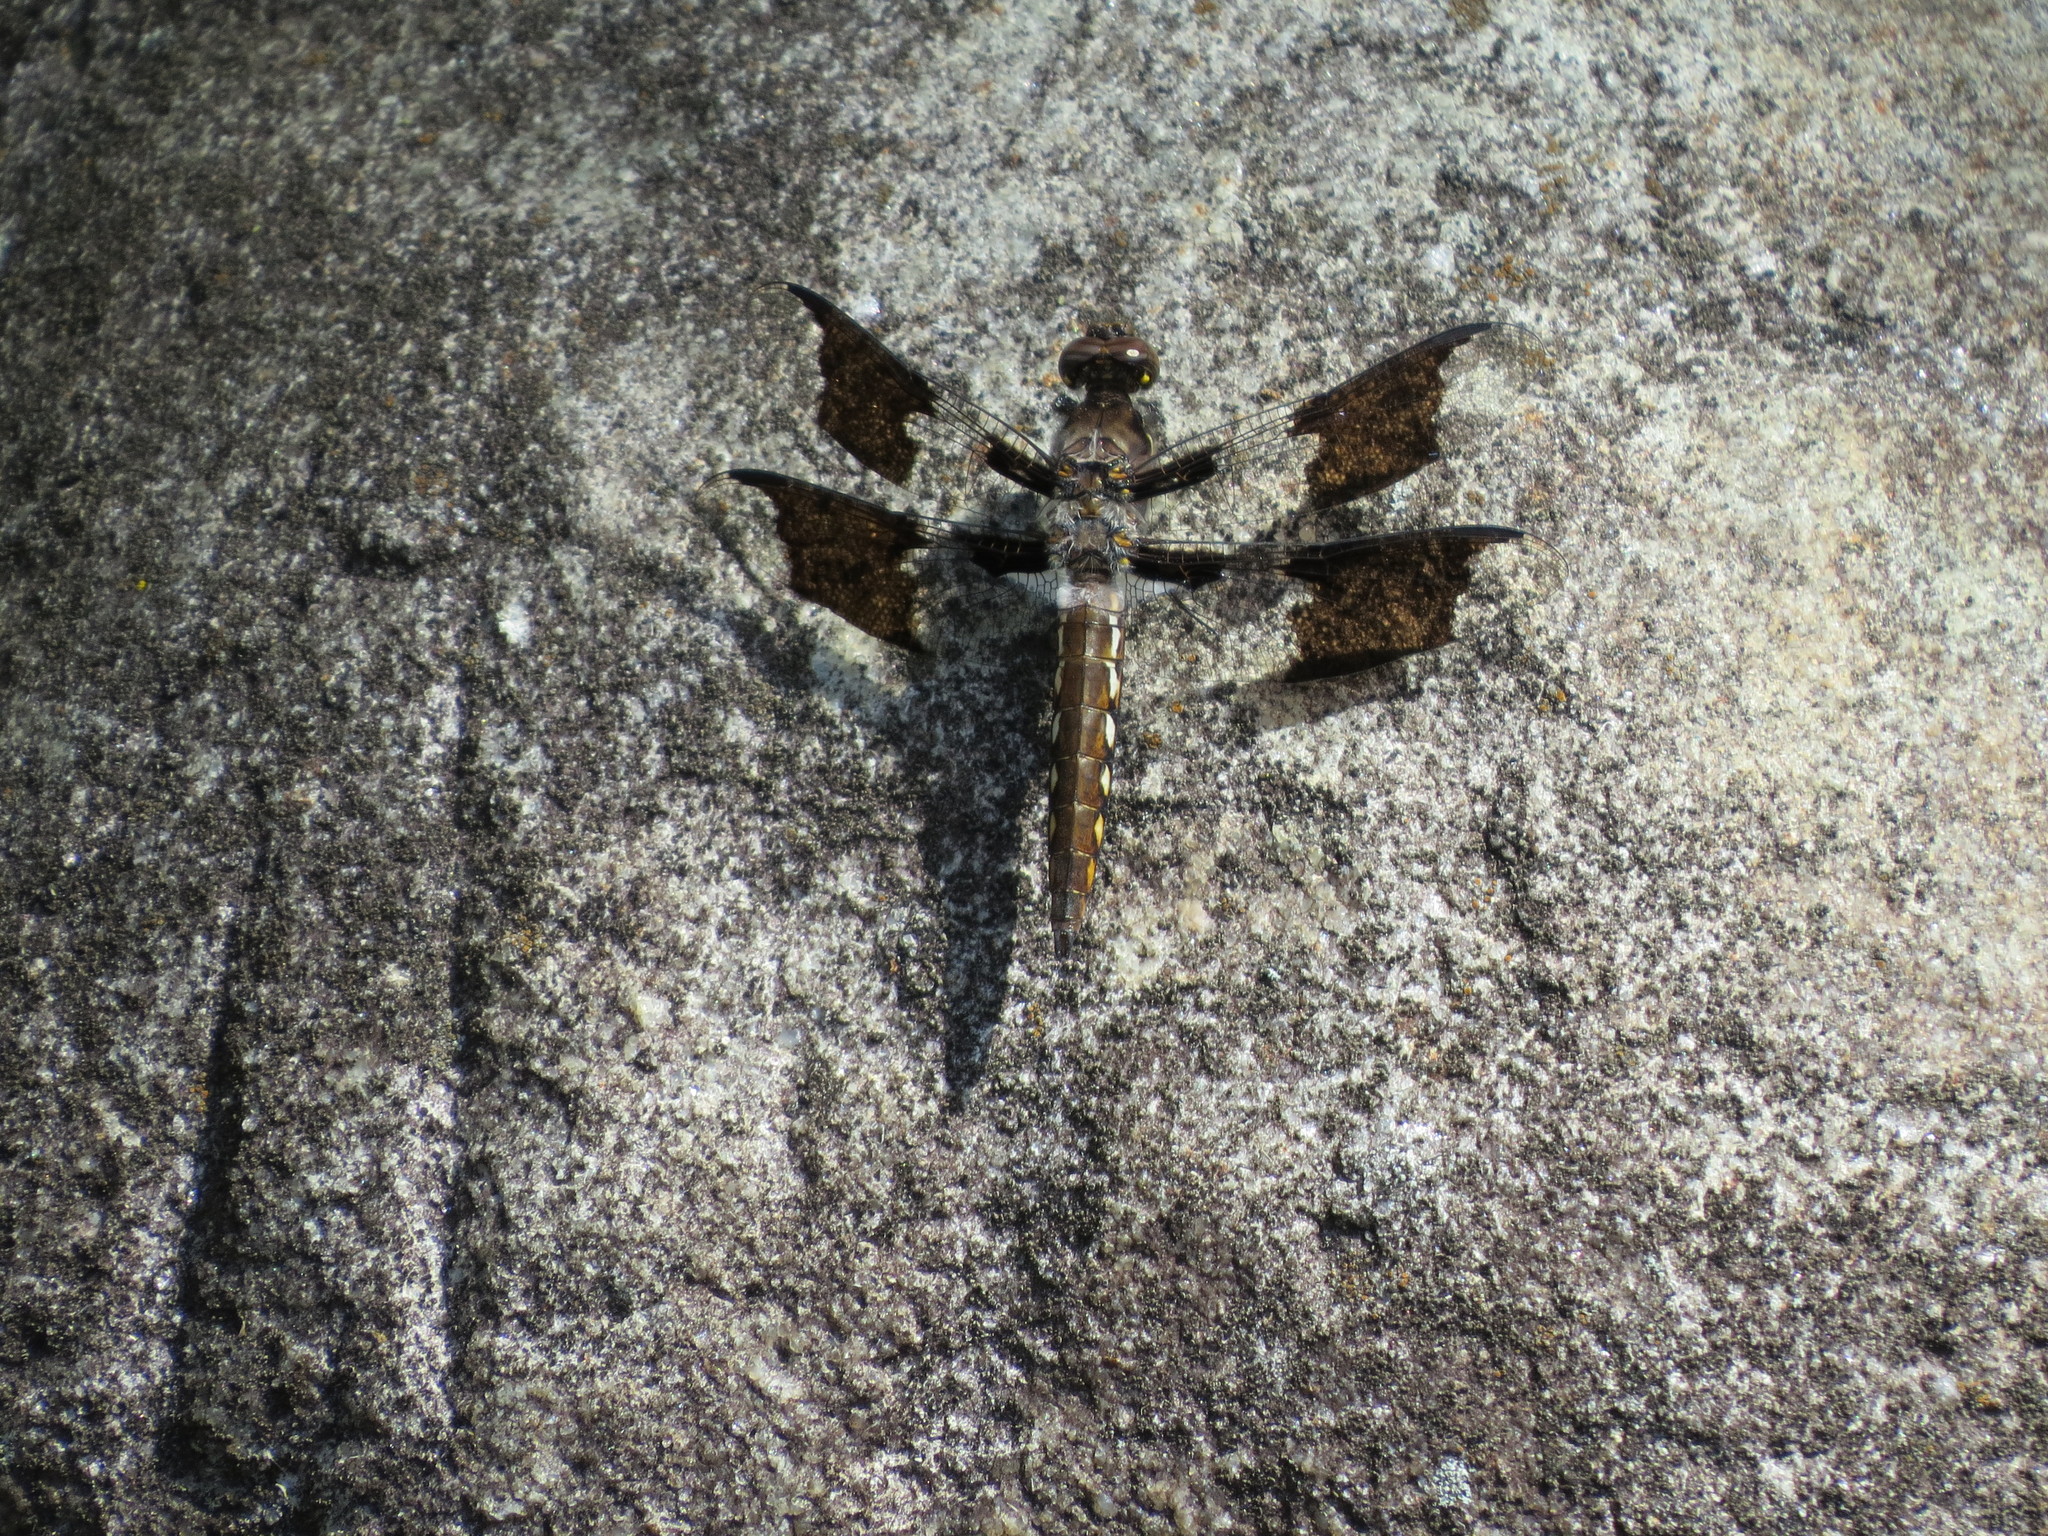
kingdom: Animalia
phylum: Arthropoda
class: Insecta
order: Odonata
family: Libellulidae
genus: Plathemis
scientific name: Plathemis lydia
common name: Common whitetail
